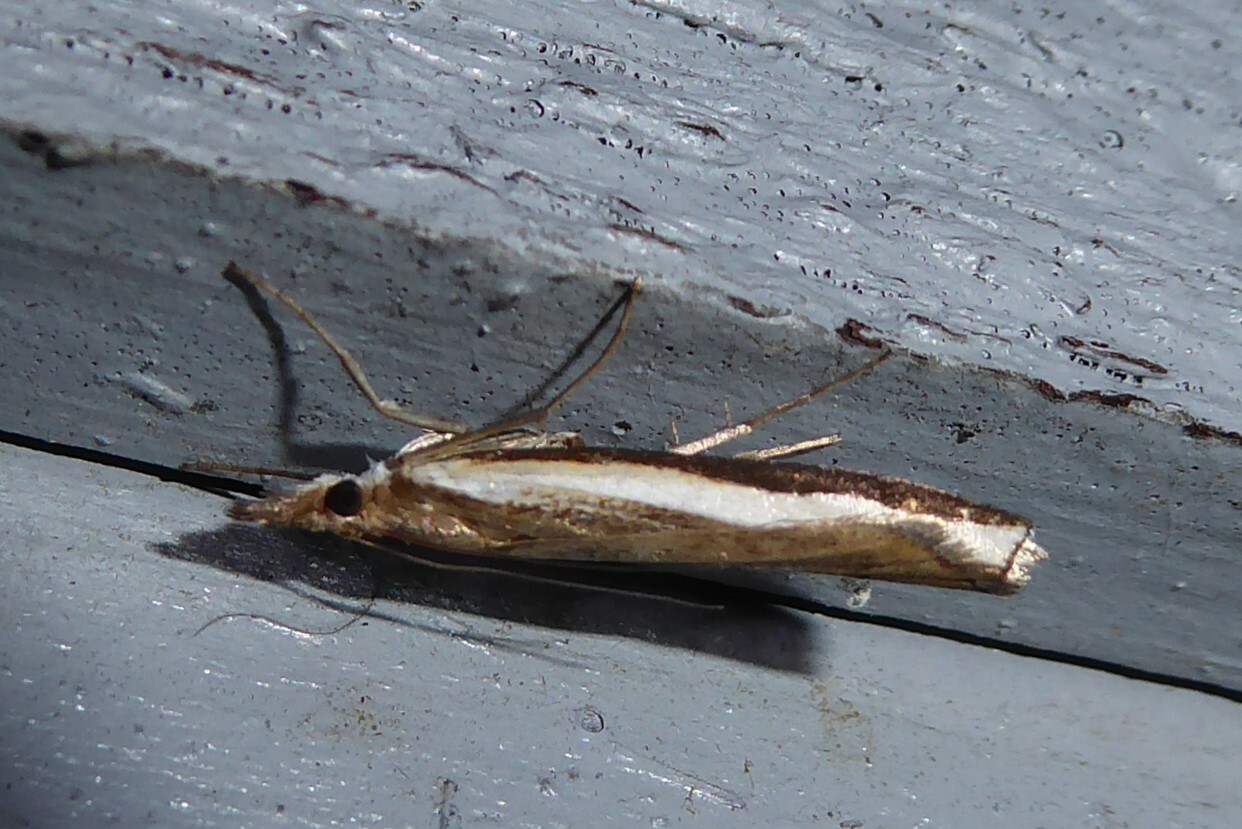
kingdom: Animalia
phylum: Arthropoda
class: Insecta
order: Lepidoptera
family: Crambidae
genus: Orocrambus
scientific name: Orocrambus flexuosellus
